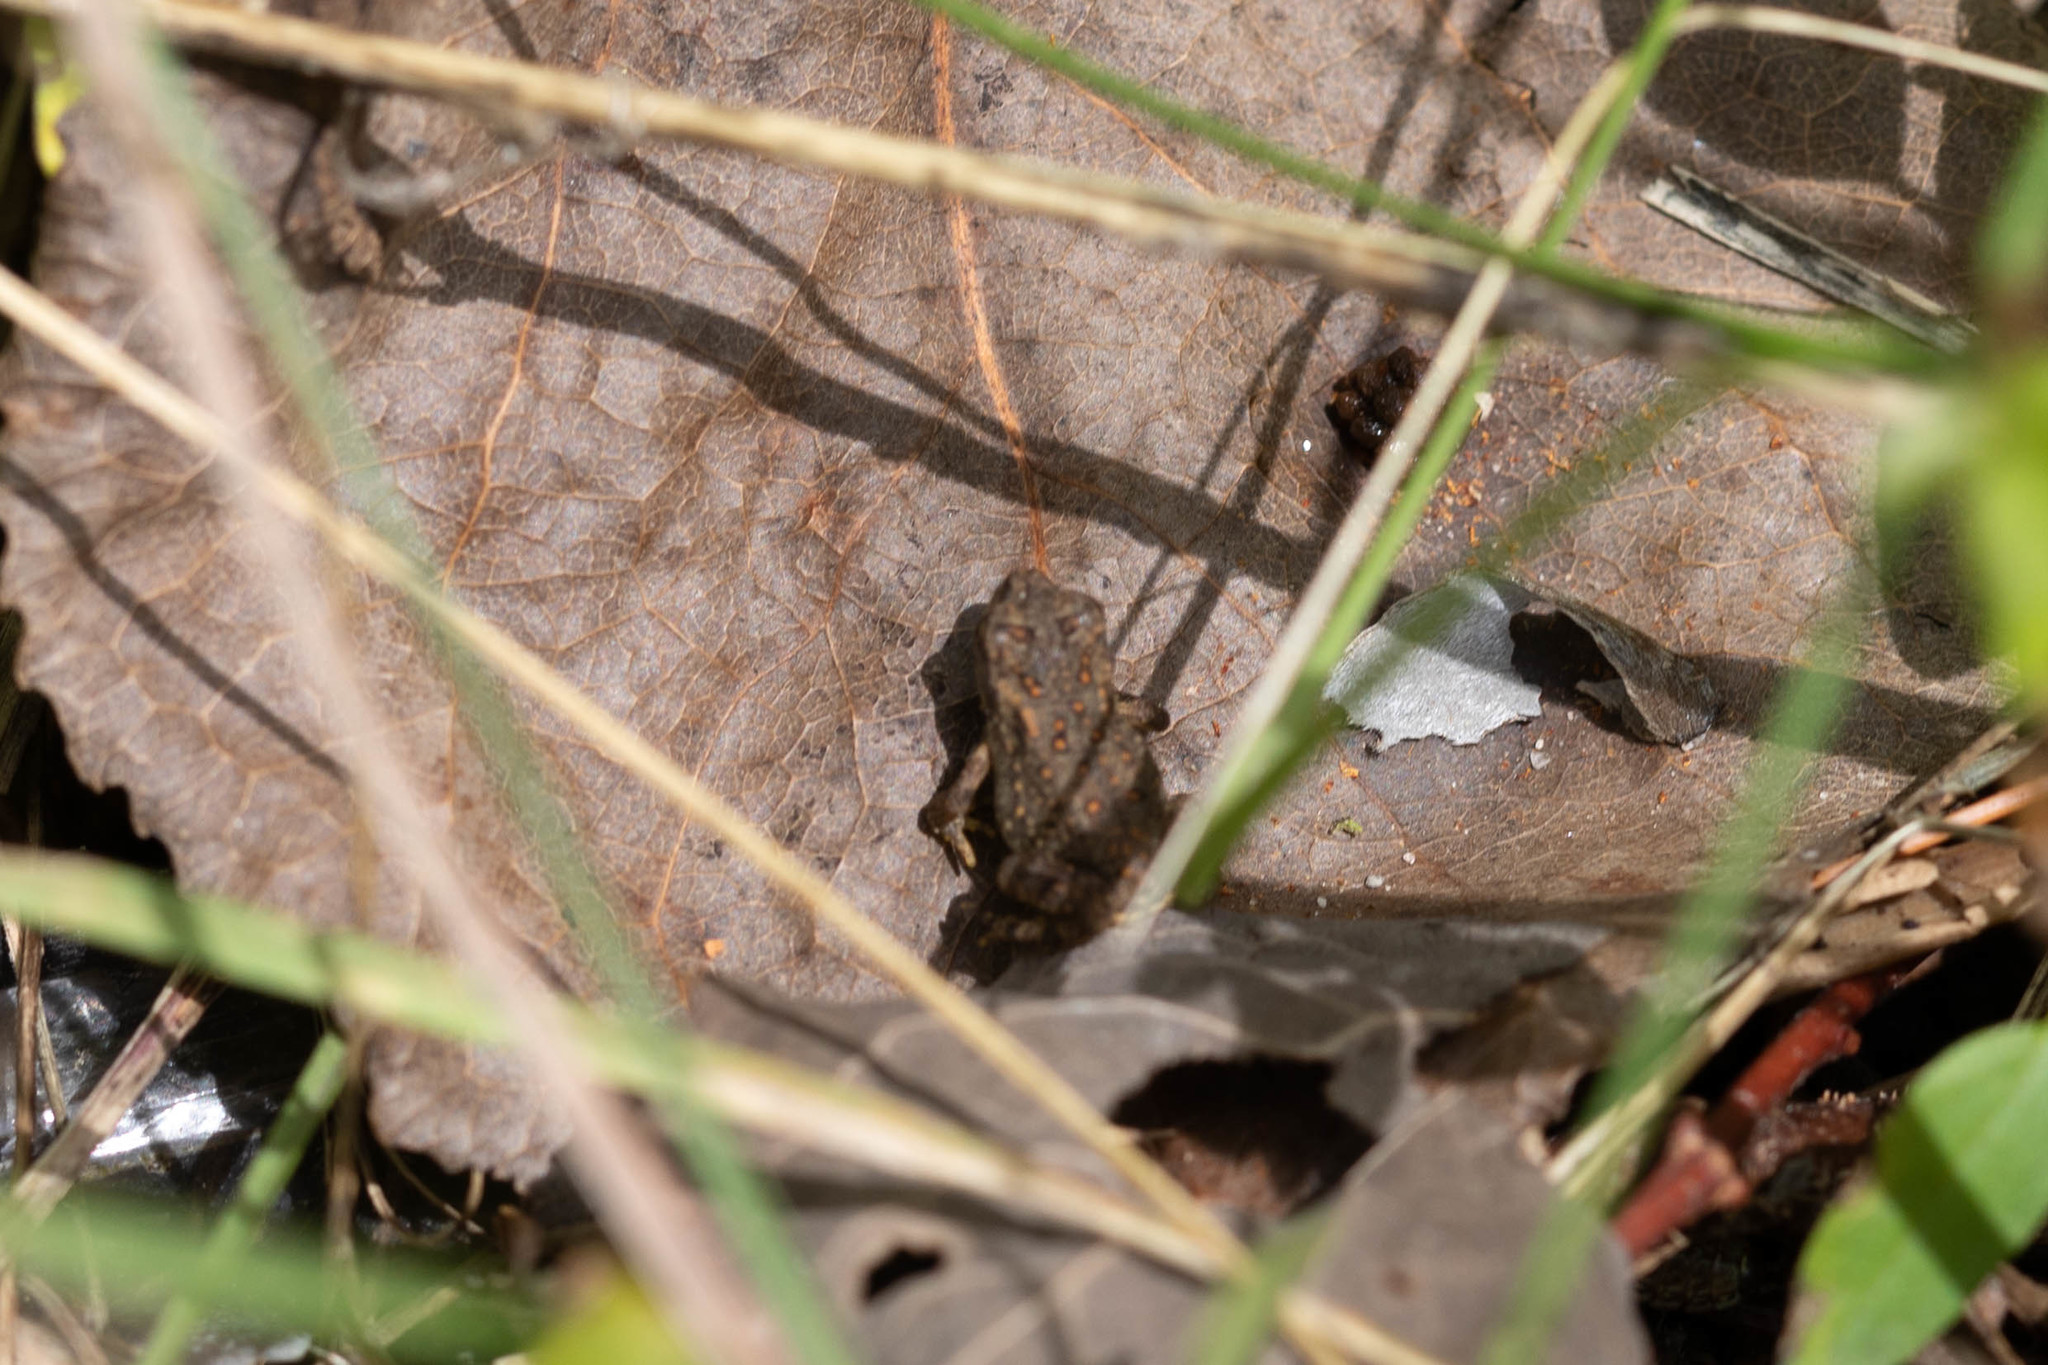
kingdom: Animalia
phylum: Chordata
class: Amphibia
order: Anura
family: Bufonidae
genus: Anaxyrus
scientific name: Anaxyrus americanus
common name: American toad
